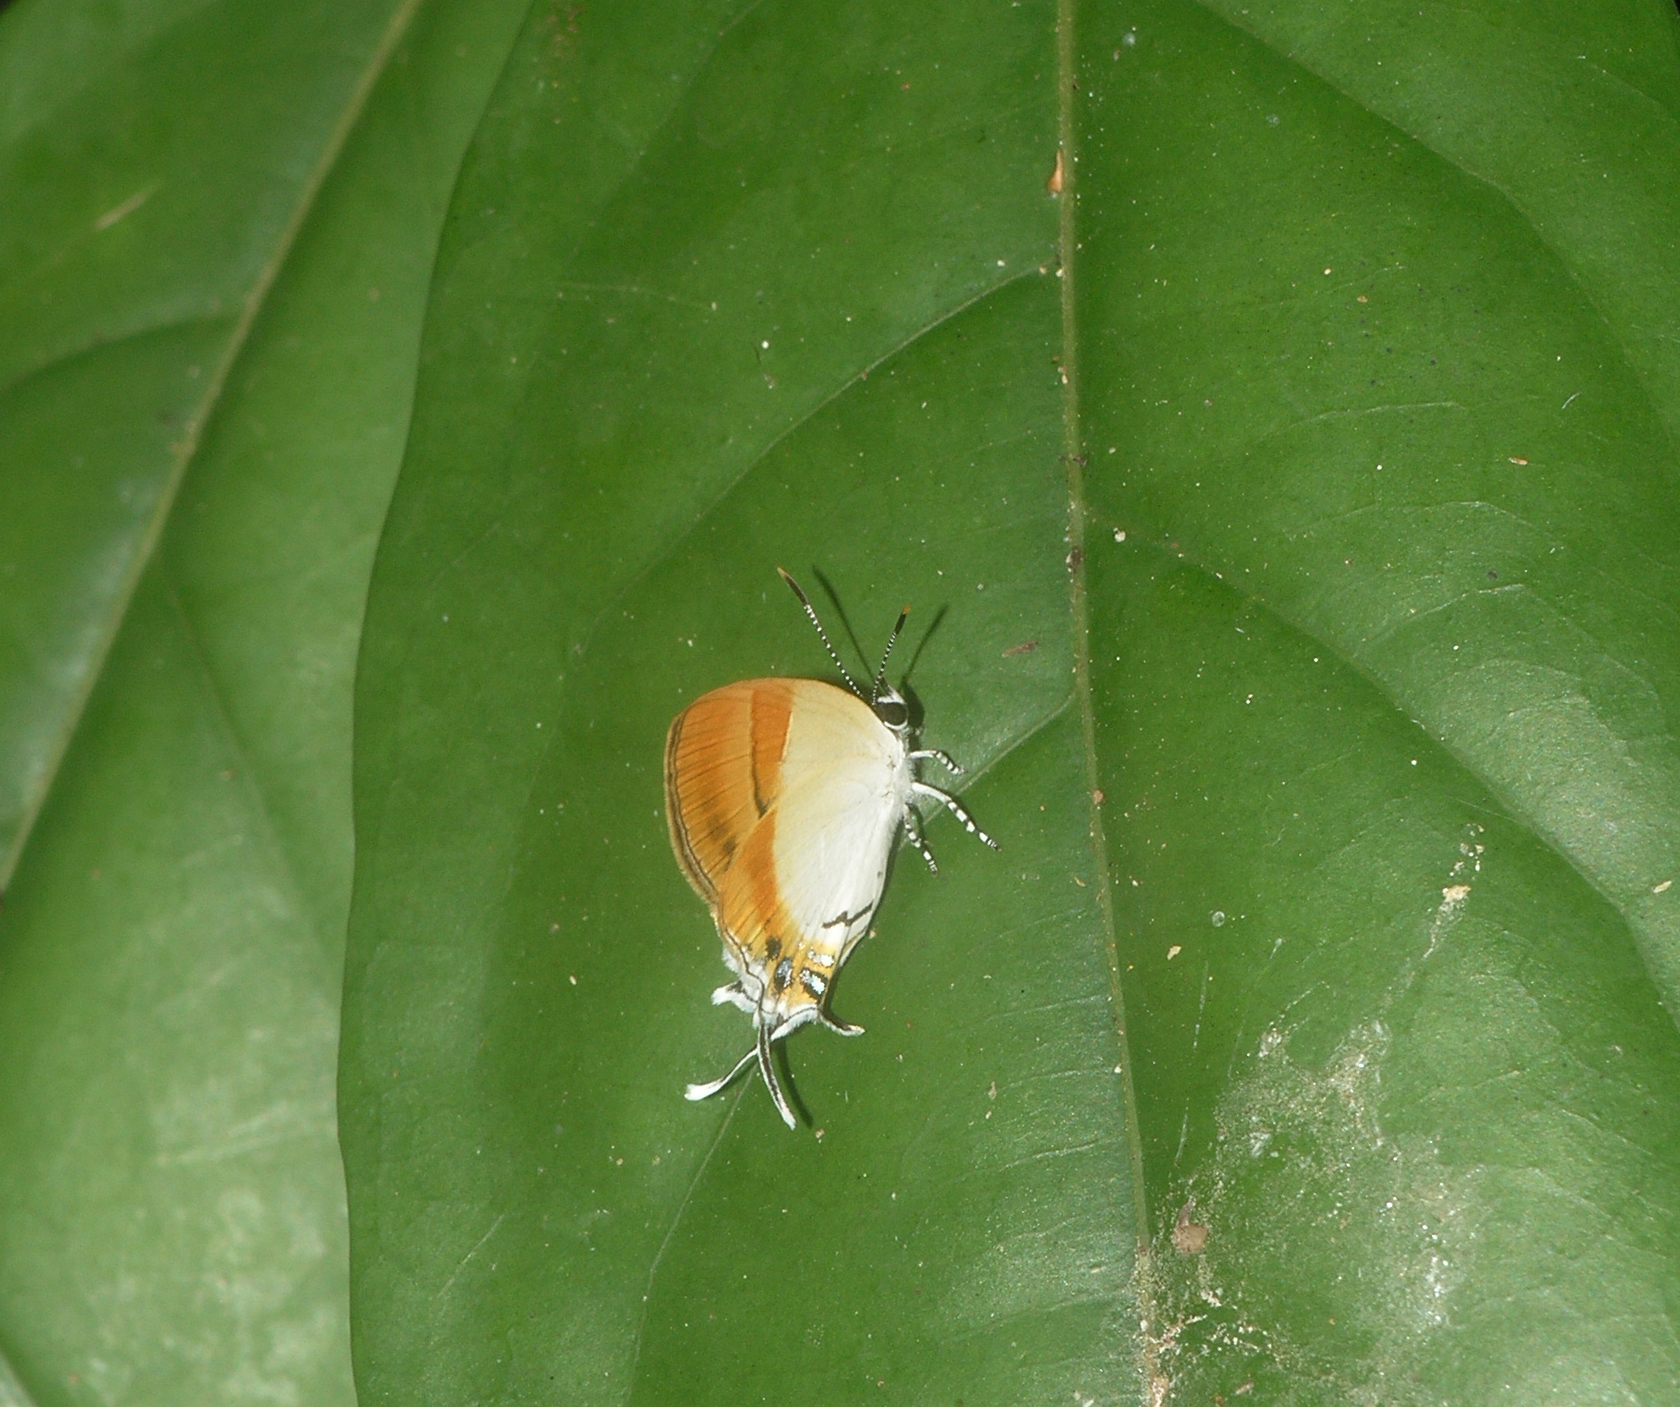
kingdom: Animalia
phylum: Arthropoda
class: Insecta
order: Lepidoptera
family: Lycaenidae
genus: Sithon
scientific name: Sithon nedymond
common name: Plush
